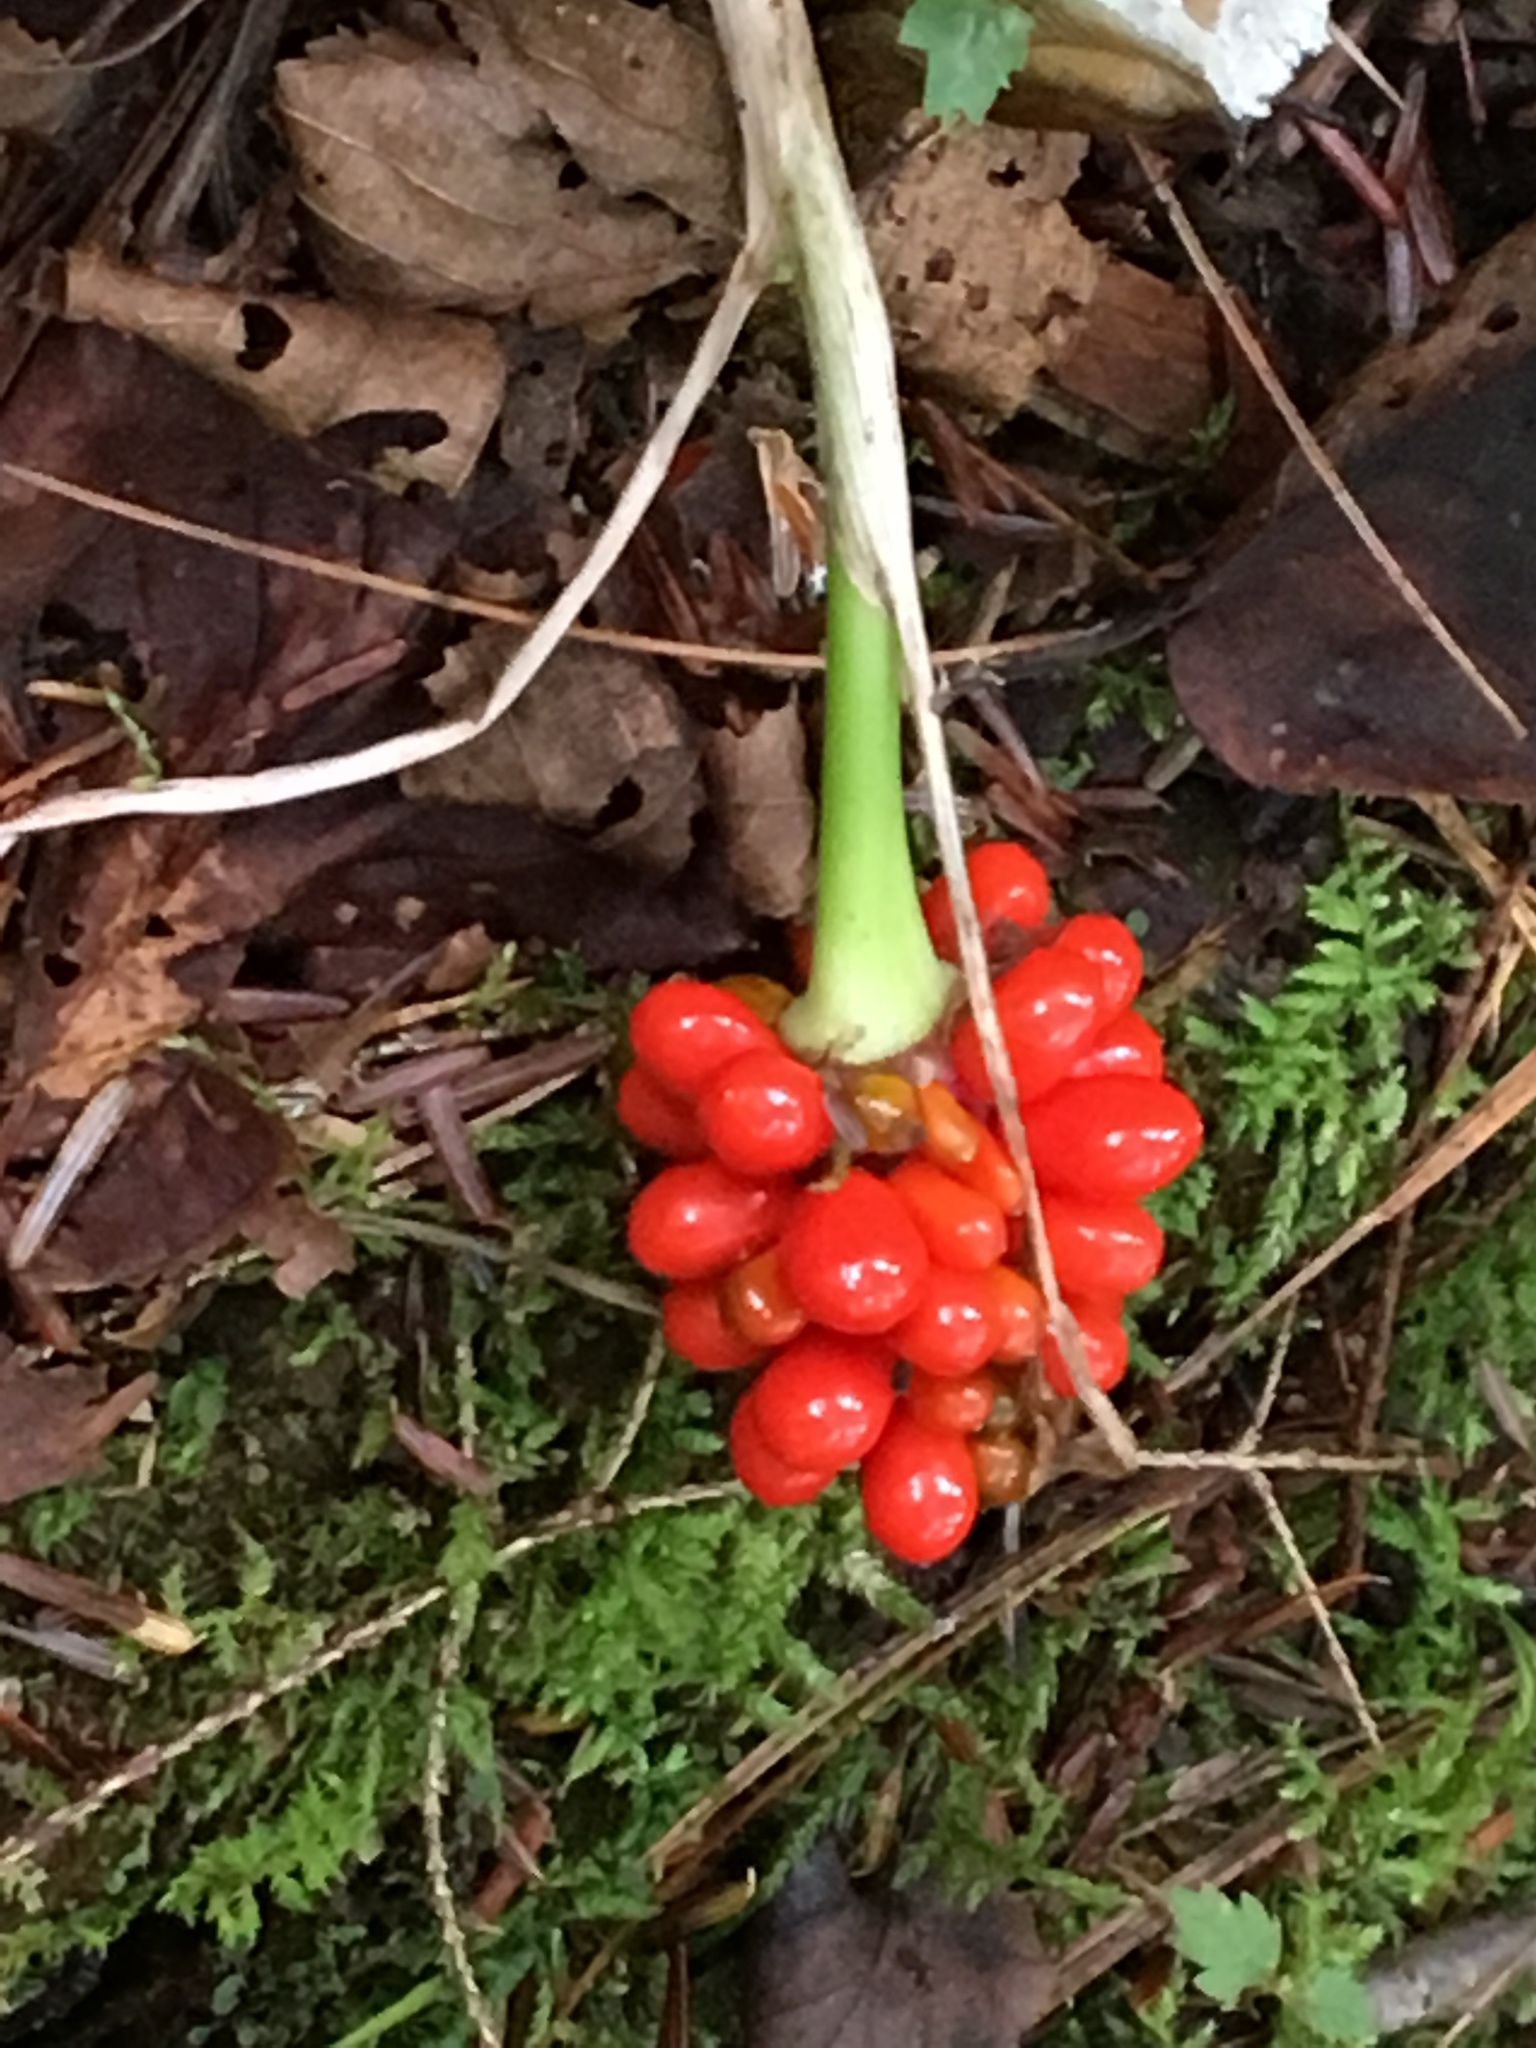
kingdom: Plantae
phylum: Tracheophyta
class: Liliopsida
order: Alismatales
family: Araceae
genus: Arisaema
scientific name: Arisaema triphyllum
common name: Jack-in-the-pulpit
